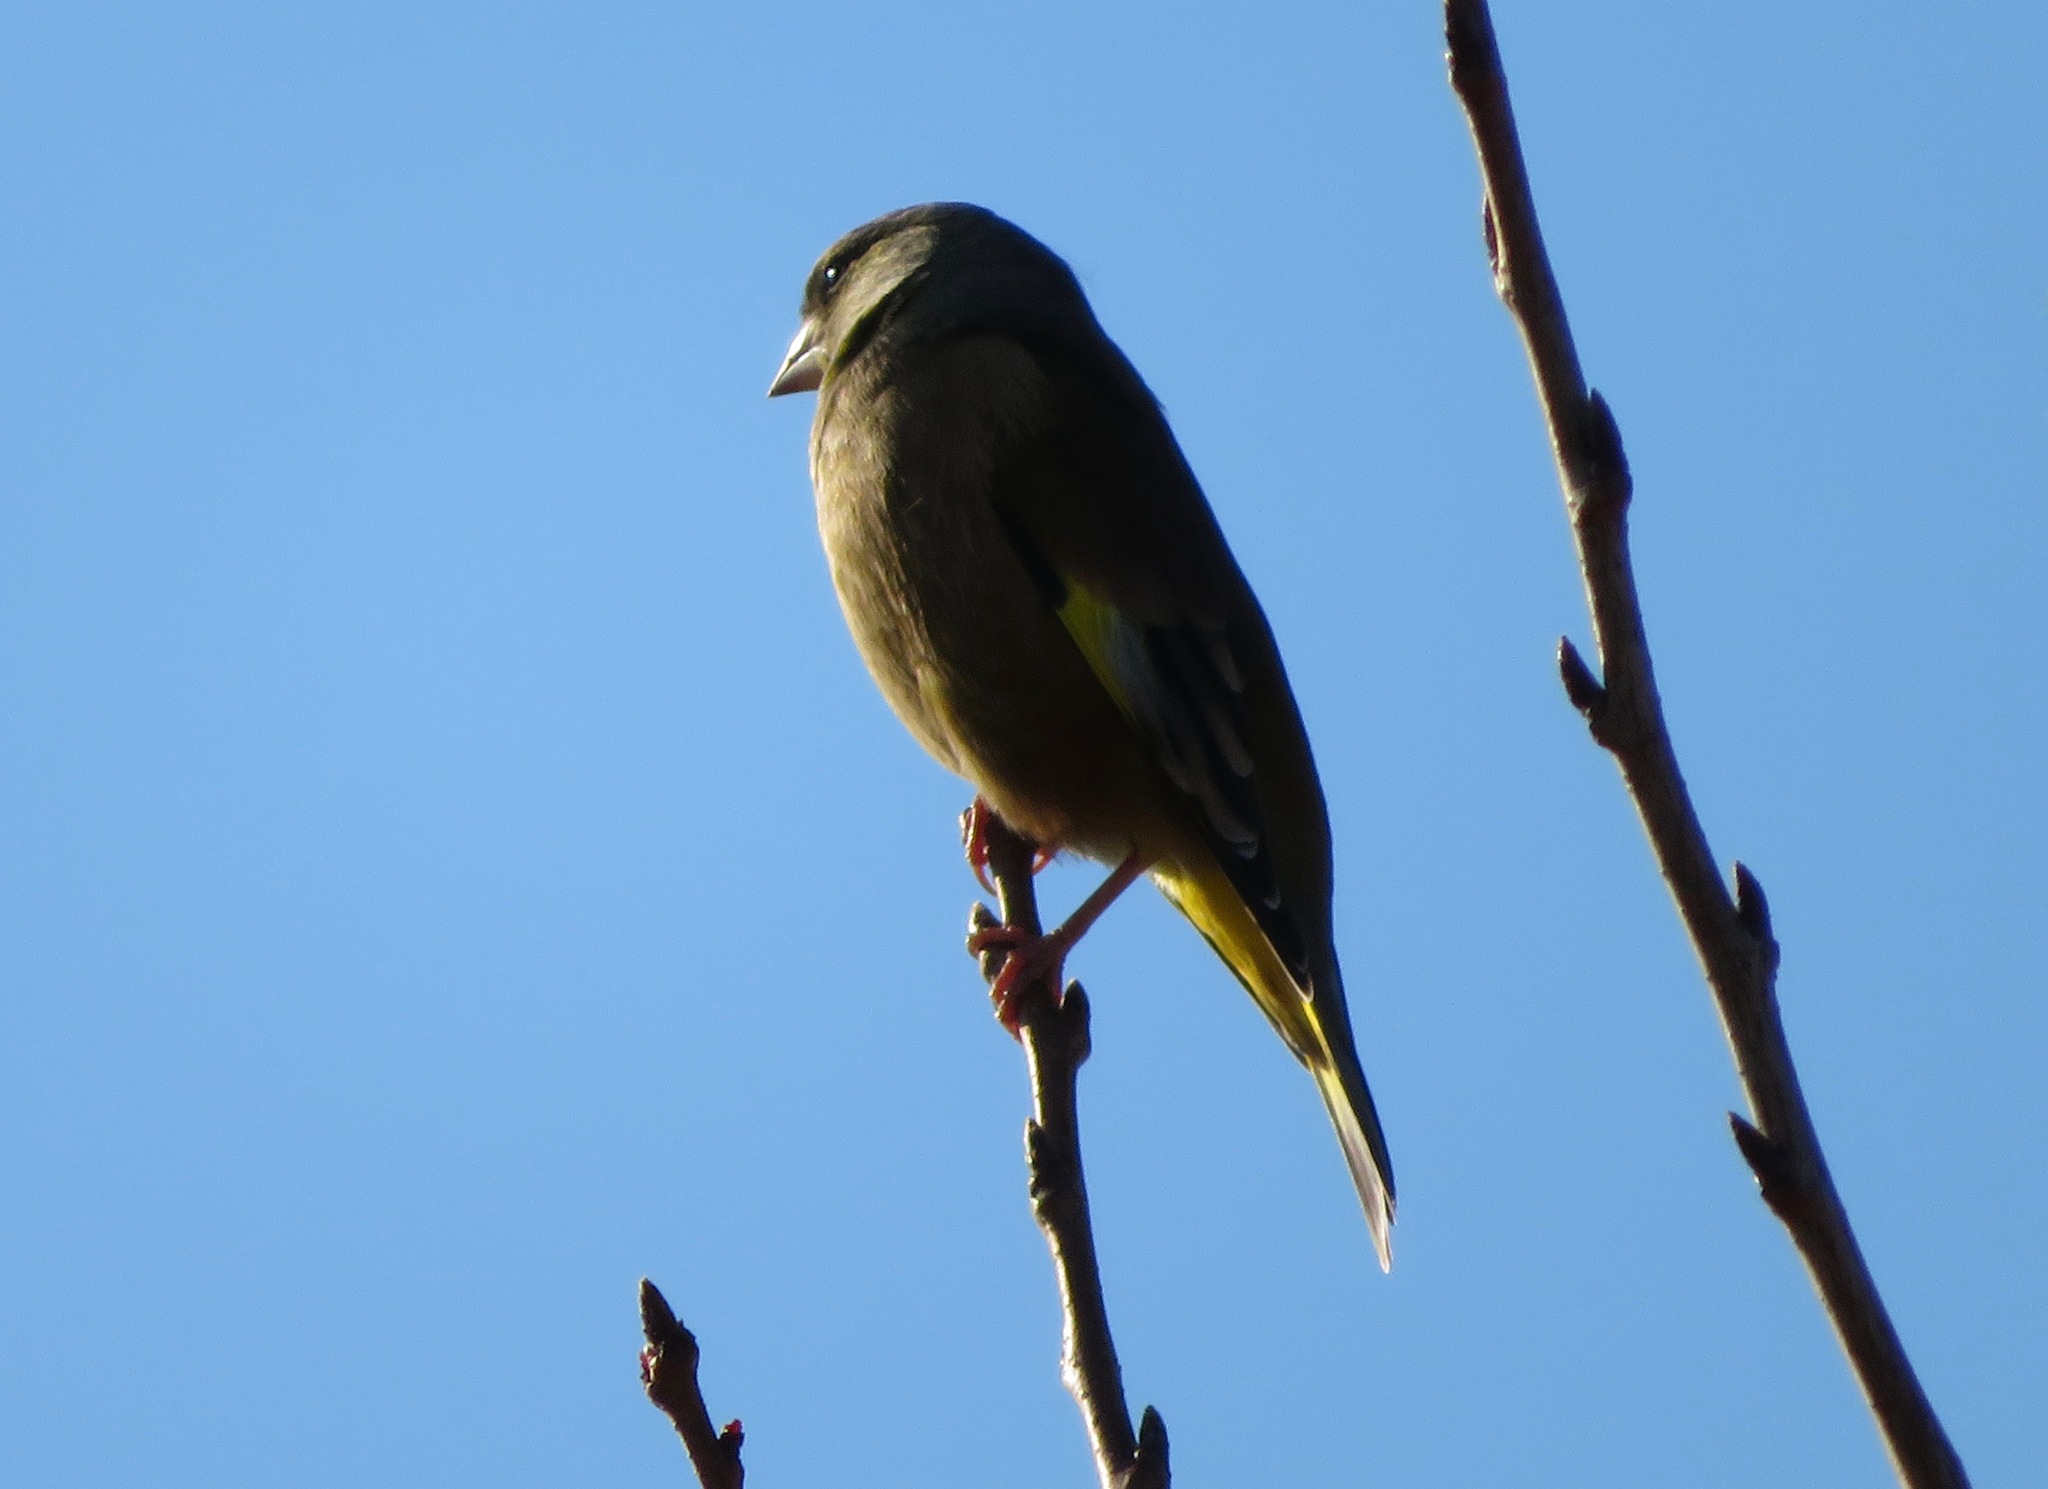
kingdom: Plantae
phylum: Tracheophyta
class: Liliopsida
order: Poales
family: Poaceae
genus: Chloris
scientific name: Chloris sinica
